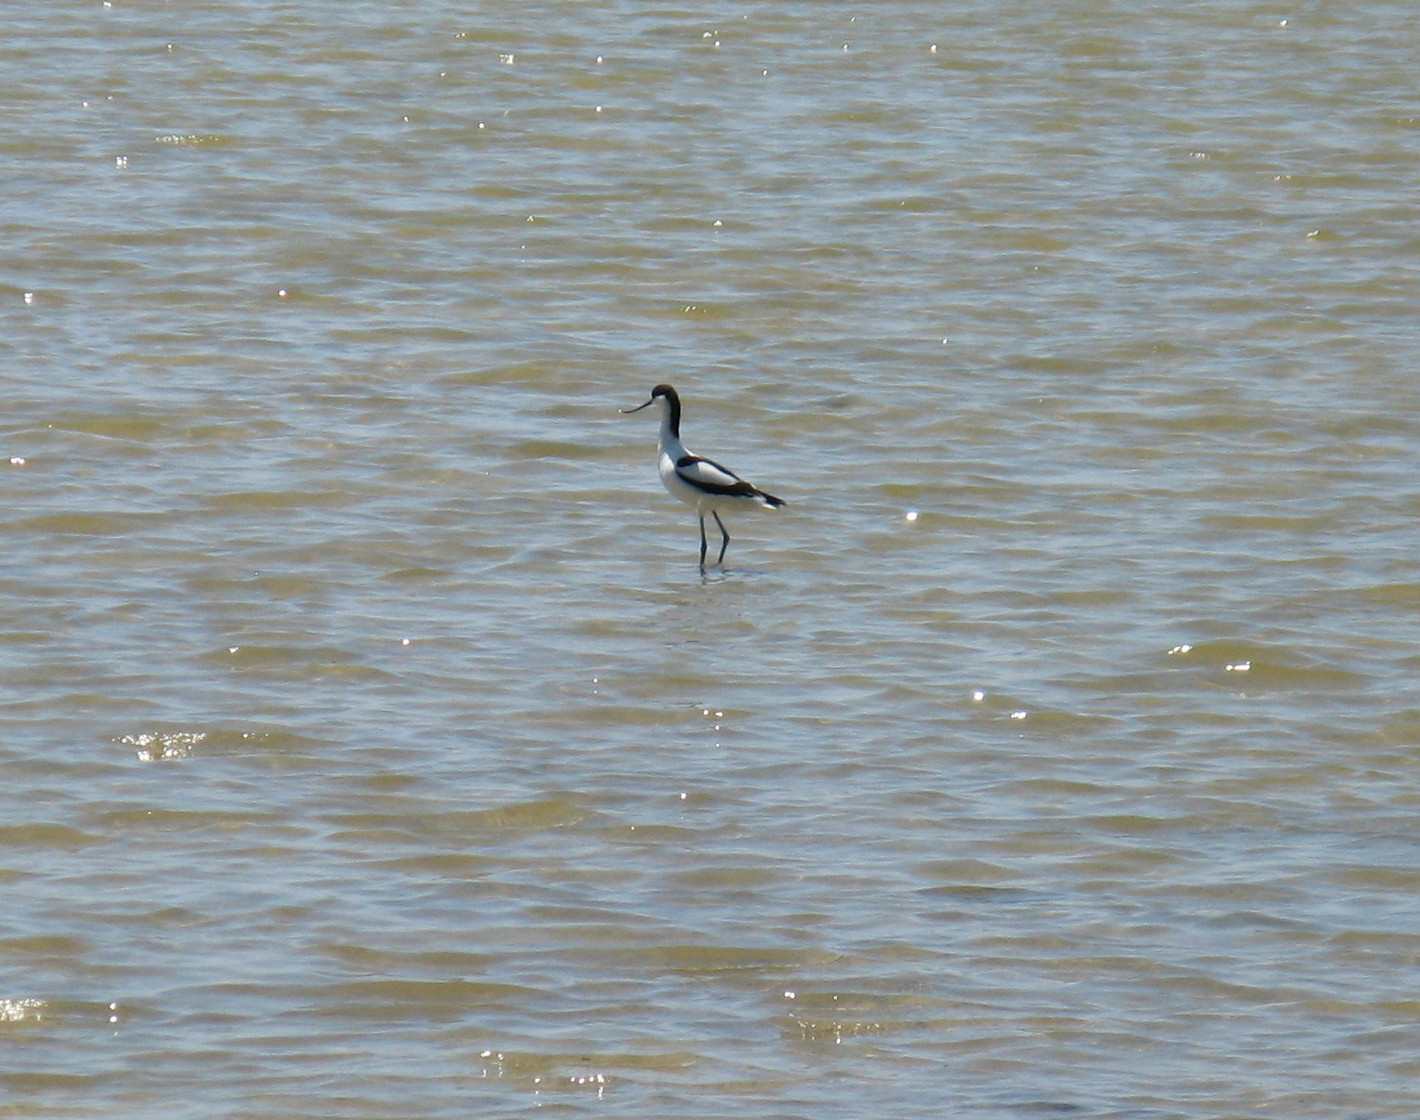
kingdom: Animalia
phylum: Chordata
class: Aves
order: Charadriiformes
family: Recurvirostridae
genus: Recurvirostra
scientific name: Recurvirostra avosetta
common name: Pied avocet
